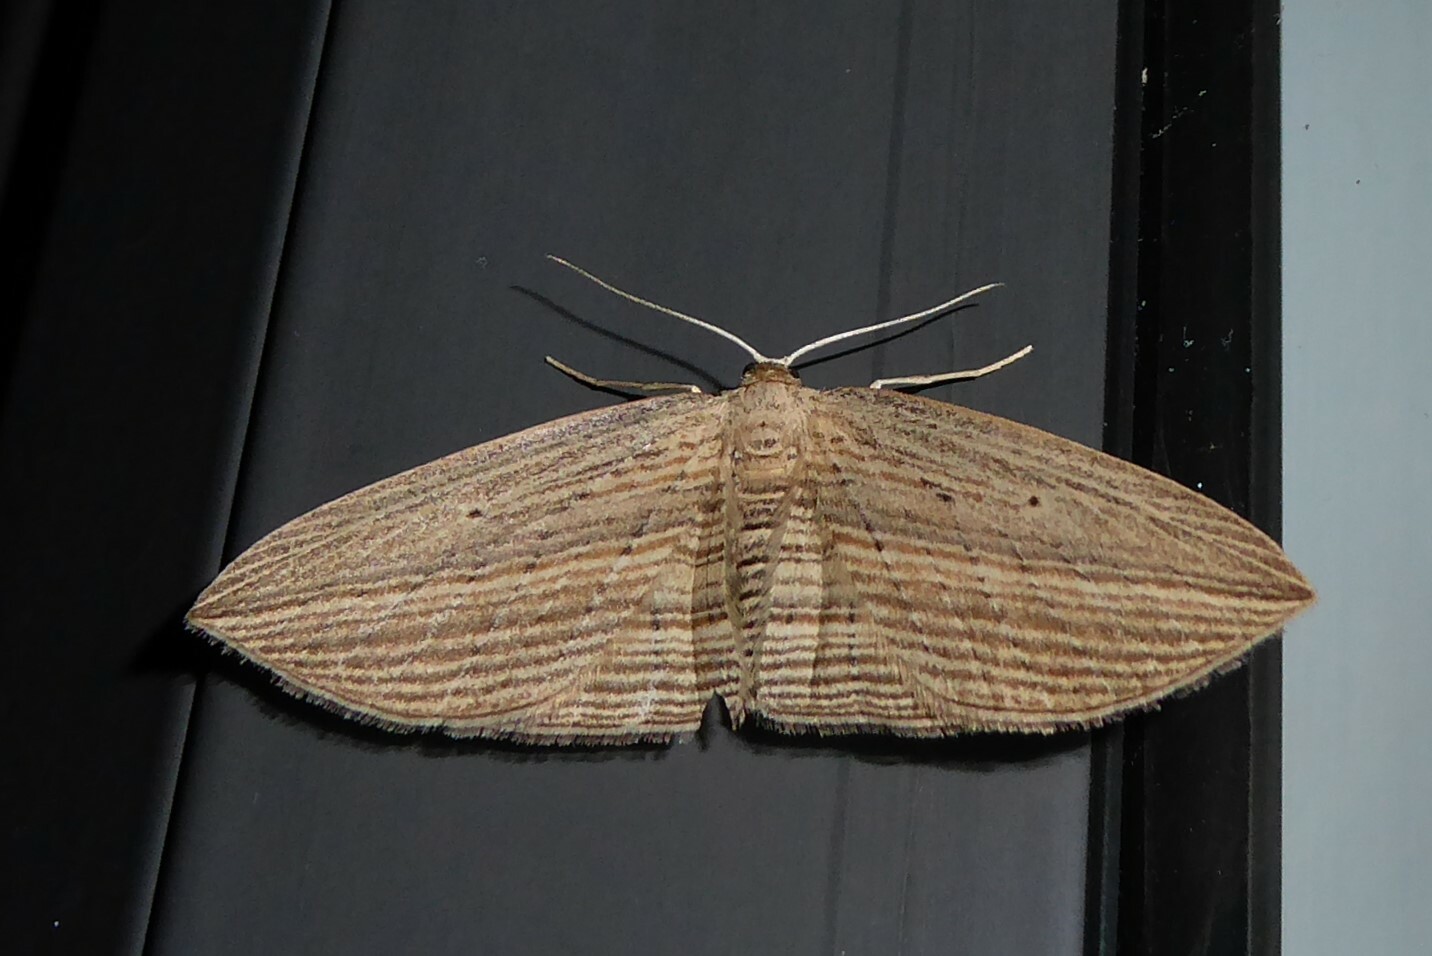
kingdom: Animalia
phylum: Arthropoda
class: Insecta
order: Lepidoptera
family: Geometridae
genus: Epiphryne
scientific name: Epiphryne verriculata
